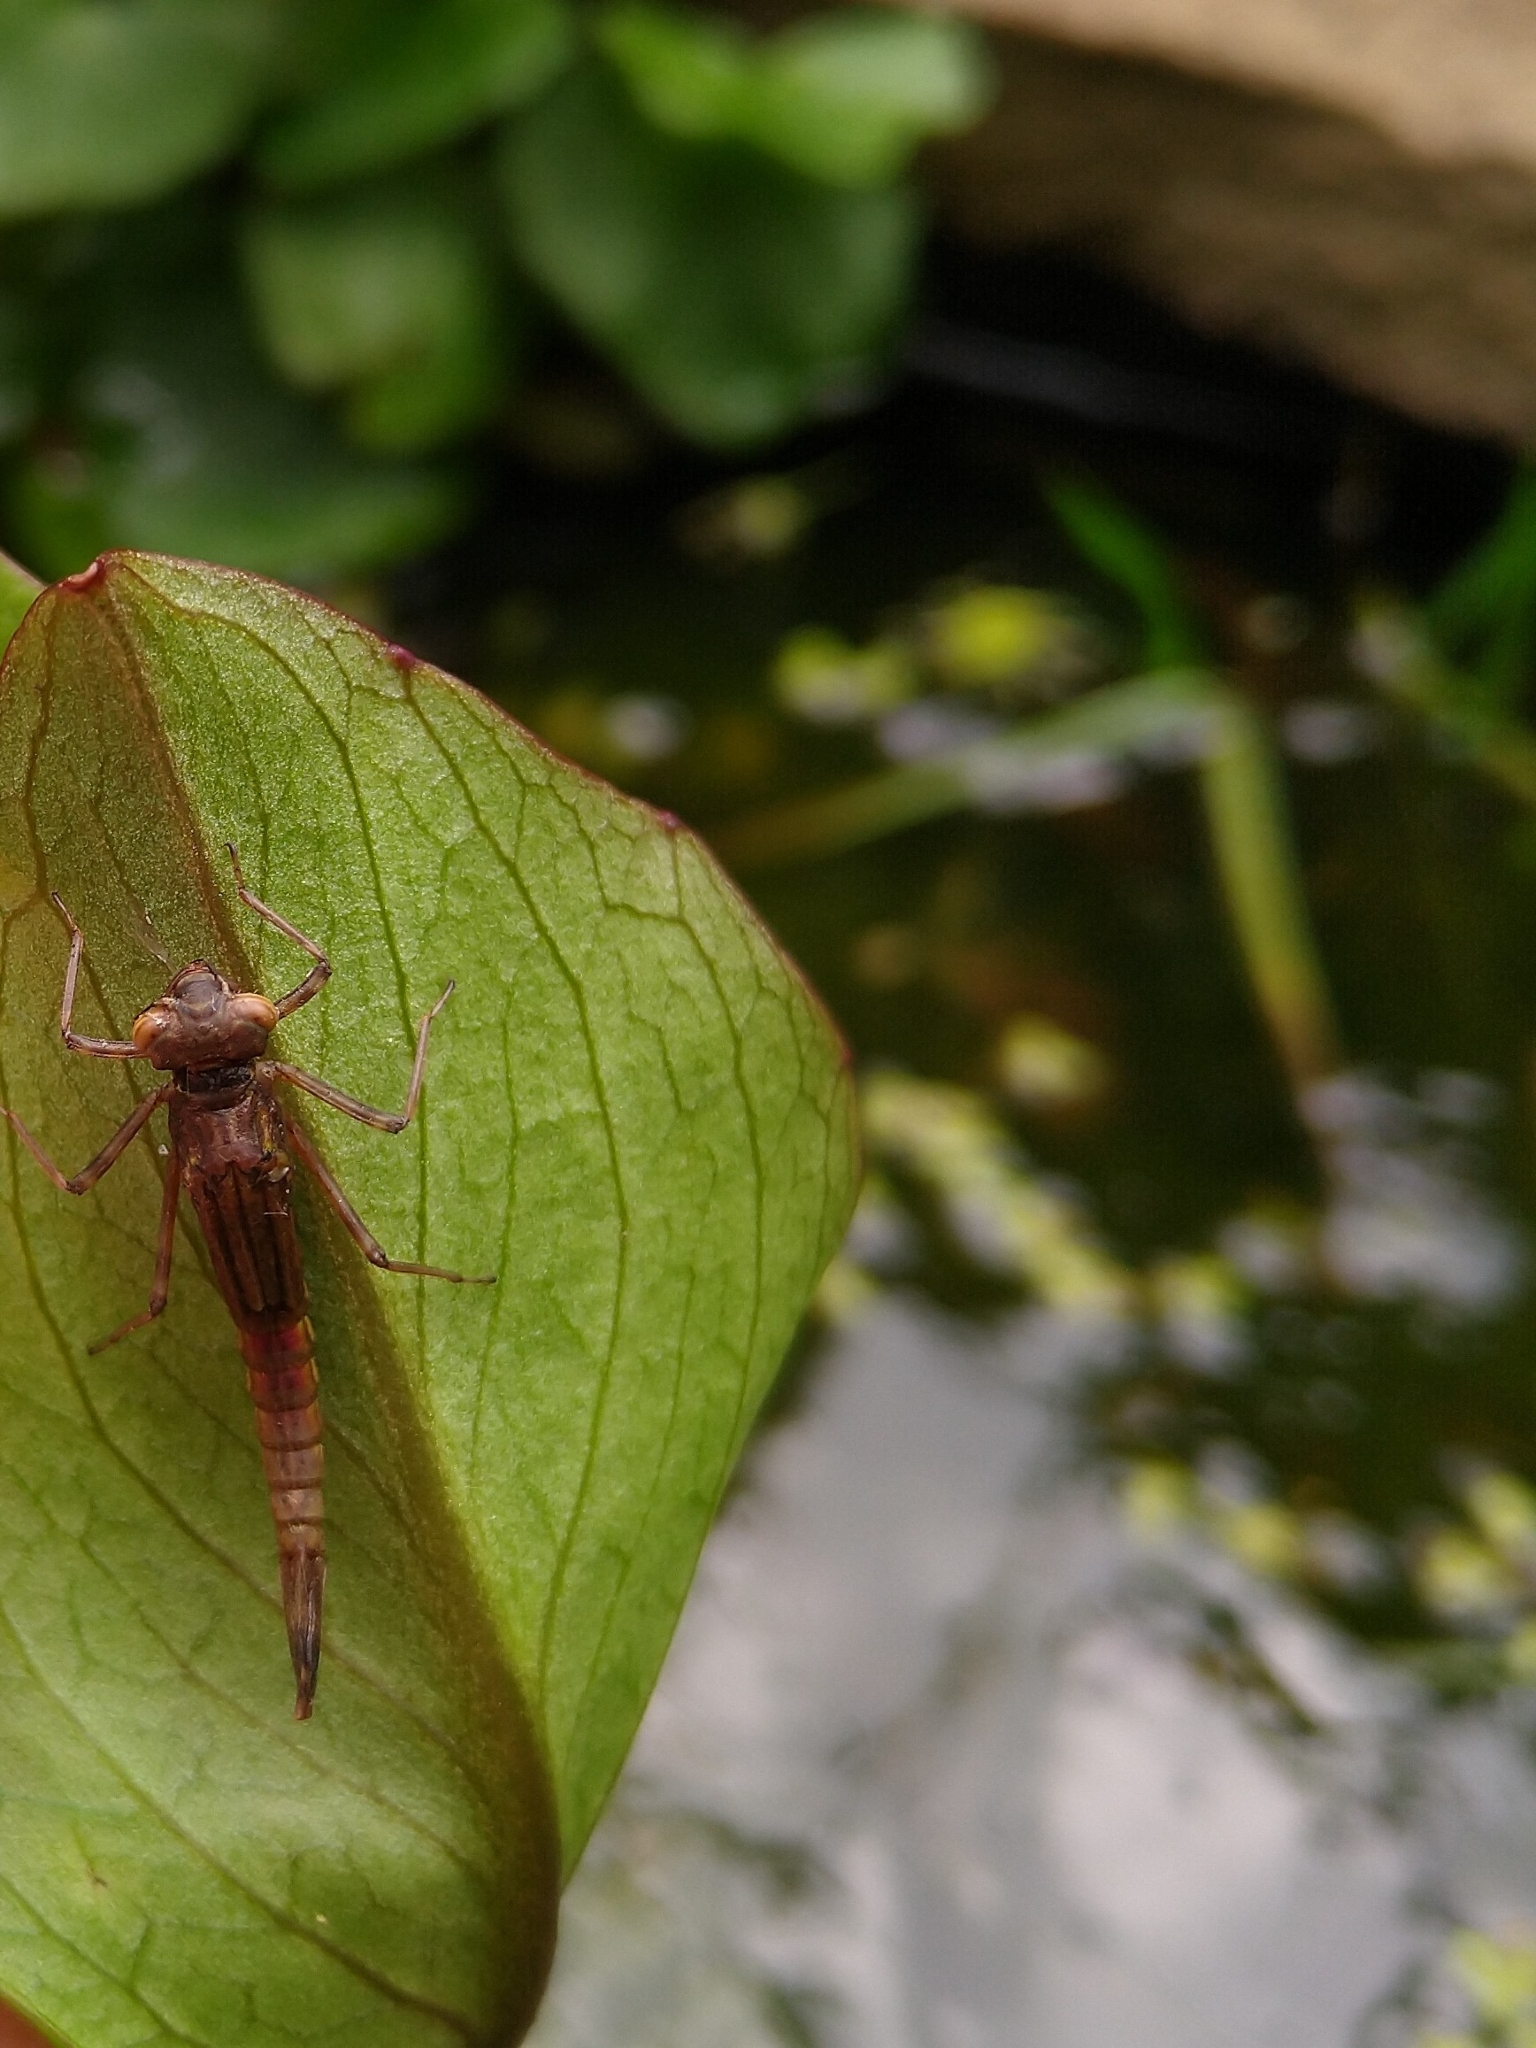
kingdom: Animalia
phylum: Arthropoda
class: Insecta
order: Odonata
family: Coenagrionidae
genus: Pyrrhosoma
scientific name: Pyrrhosoma nymphula
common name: Large red damsel
